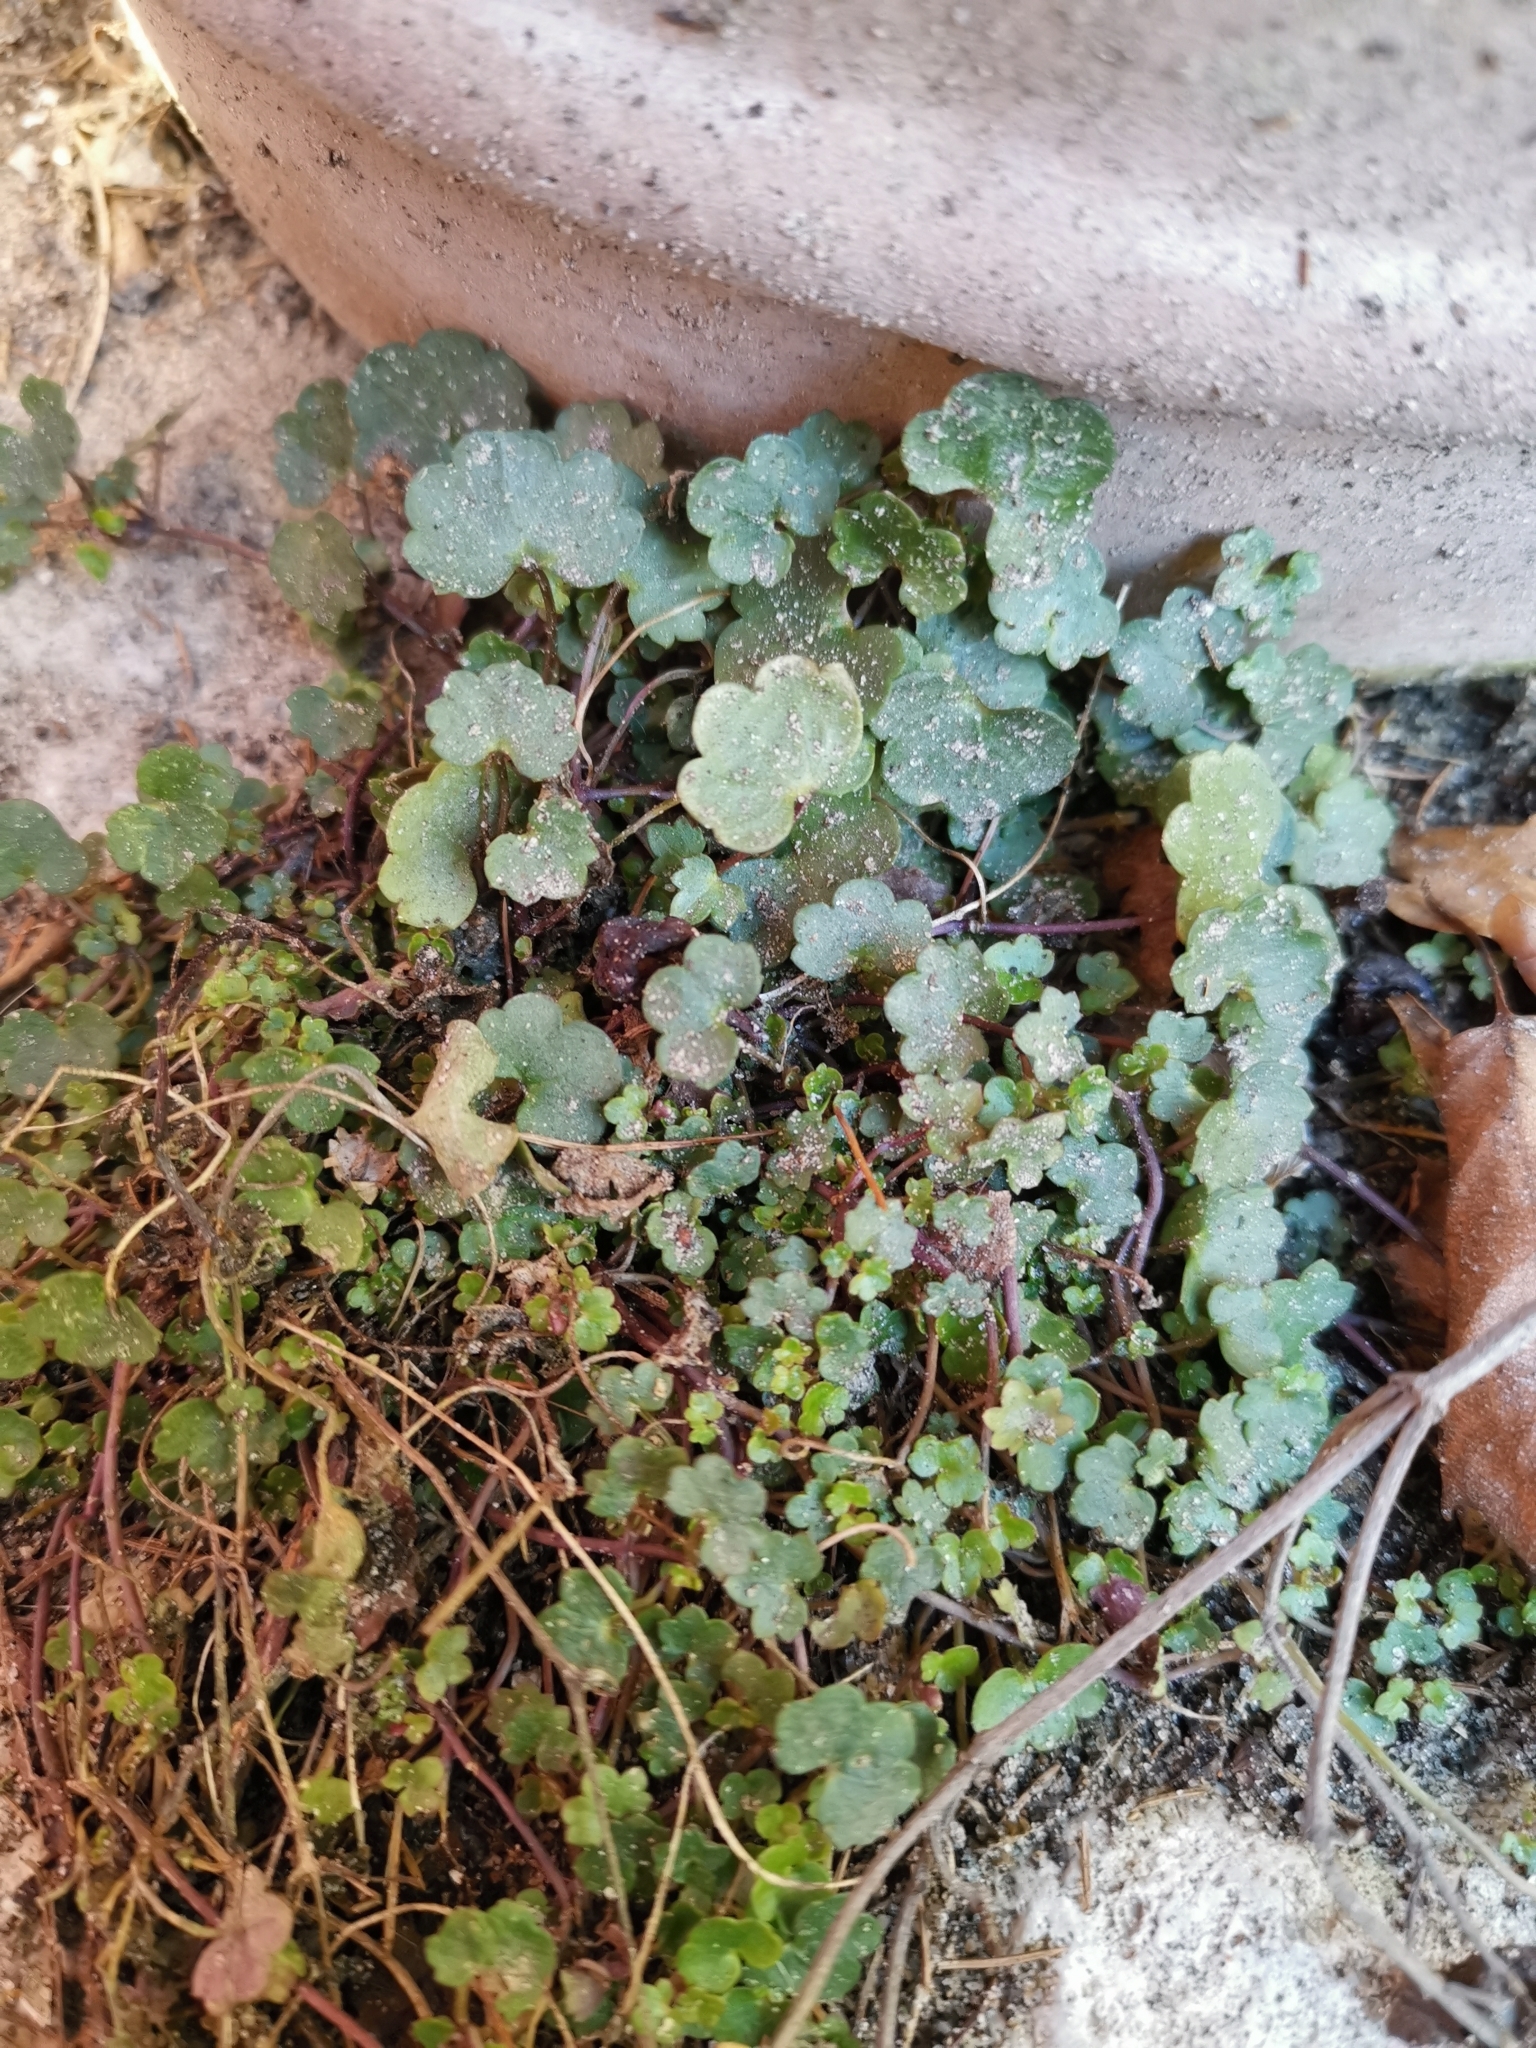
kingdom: Plantae
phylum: Tracheophyta
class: Magnoliopsida
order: Lamiales
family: Plantaginaceae
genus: Cymbalaria
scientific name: Cymbalaria muralis
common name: Ivy-leaved toadflax
